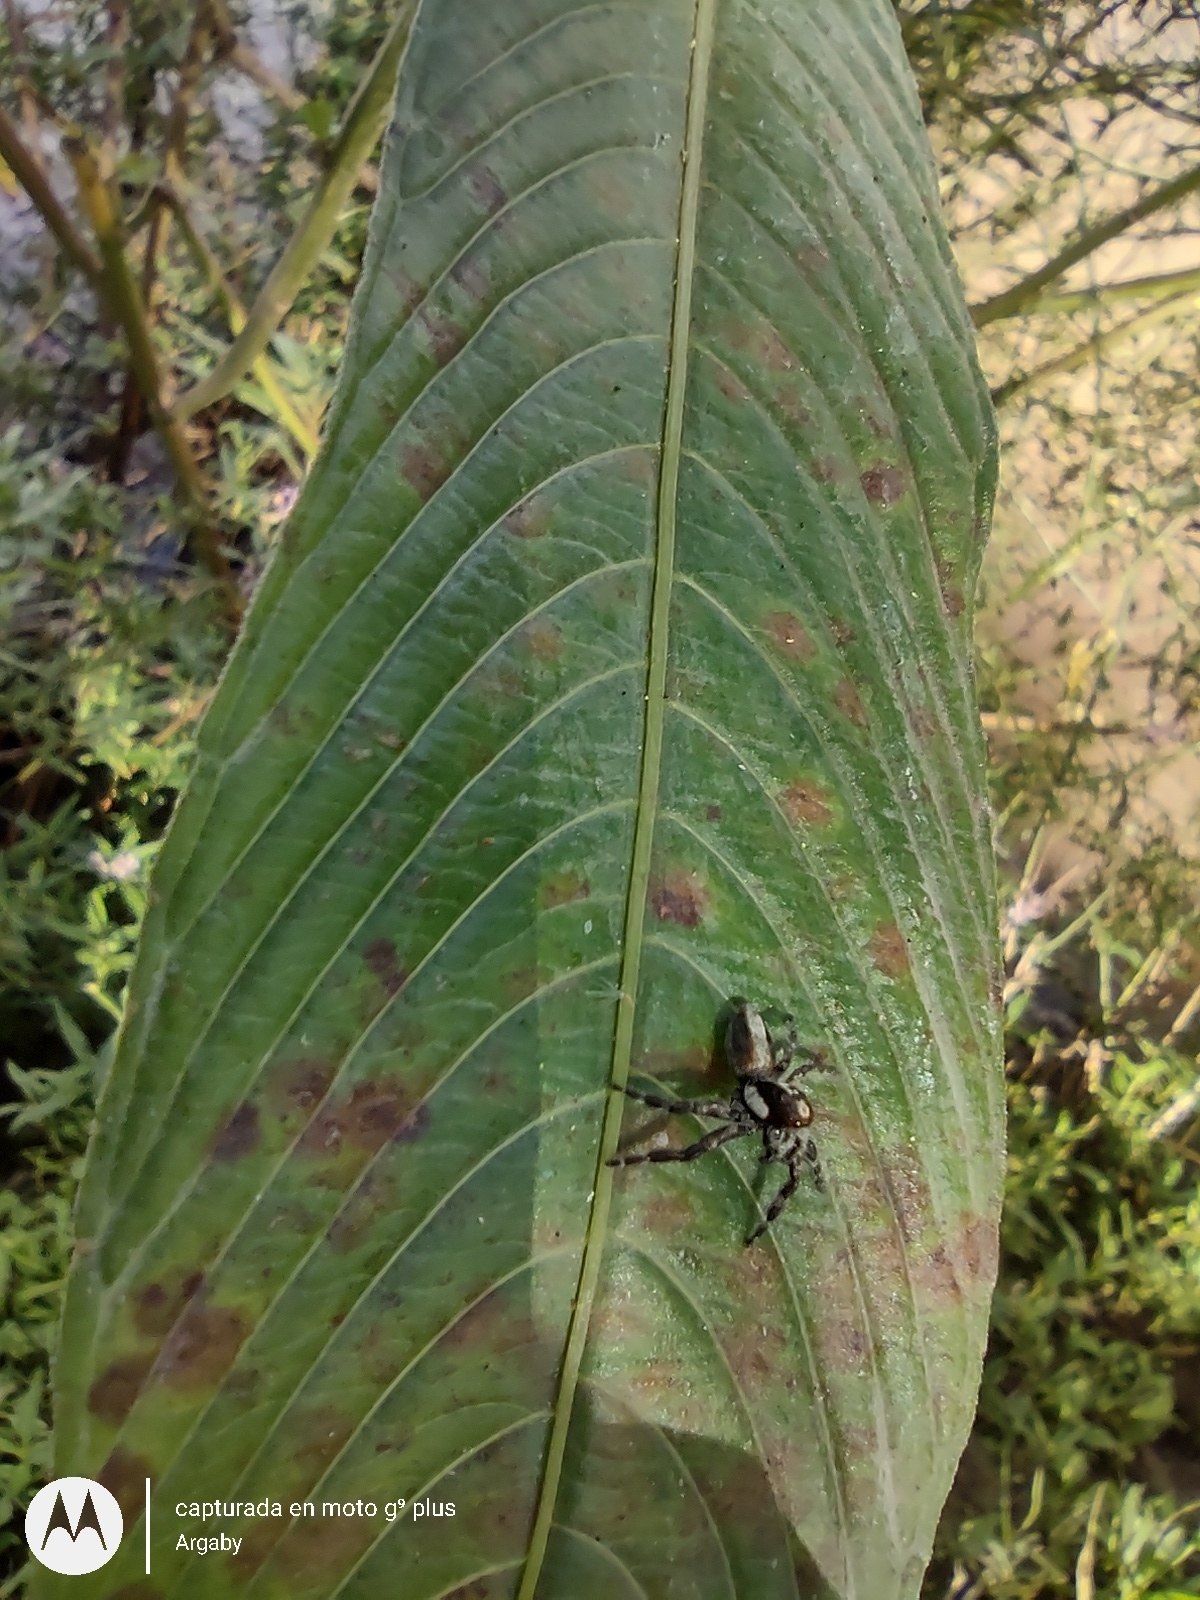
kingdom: Animalia
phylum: Arthropoda
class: Arachnida
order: Araneae
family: Salticidae
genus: Megafreya
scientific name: Megafreya sutrix
